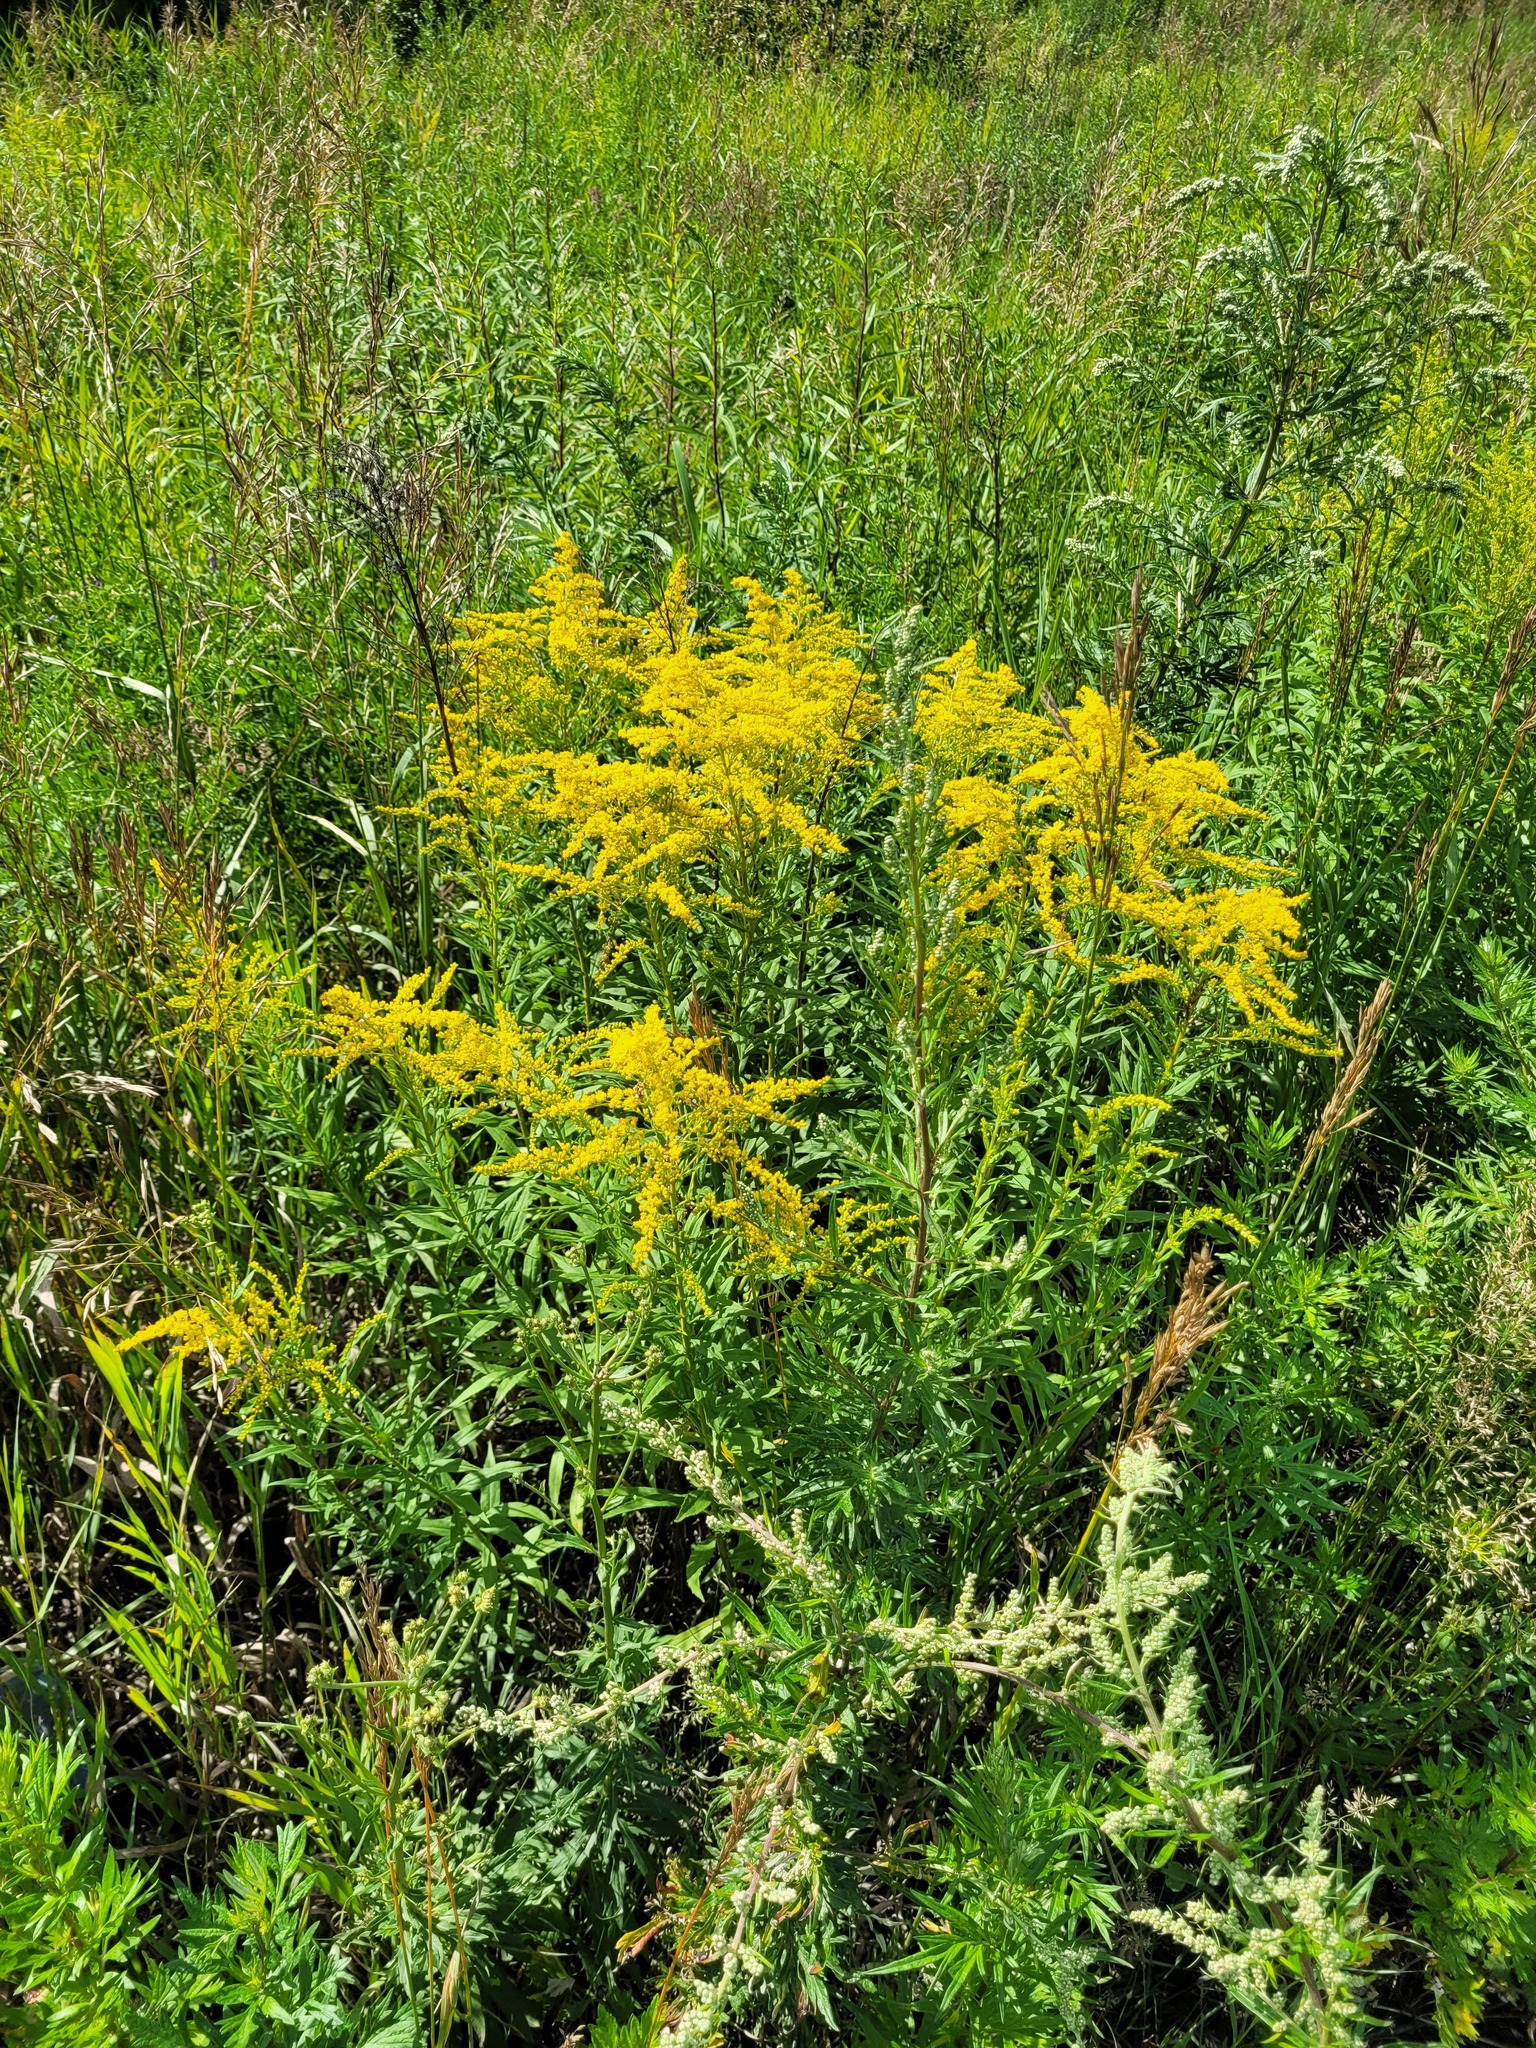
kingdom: Plantae
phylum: Tracheophyta
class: Magnoliopsida
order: Asterales
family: Asteraceae
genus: Solidago
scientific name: Solidago canadensis
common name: Canada goldenrod
